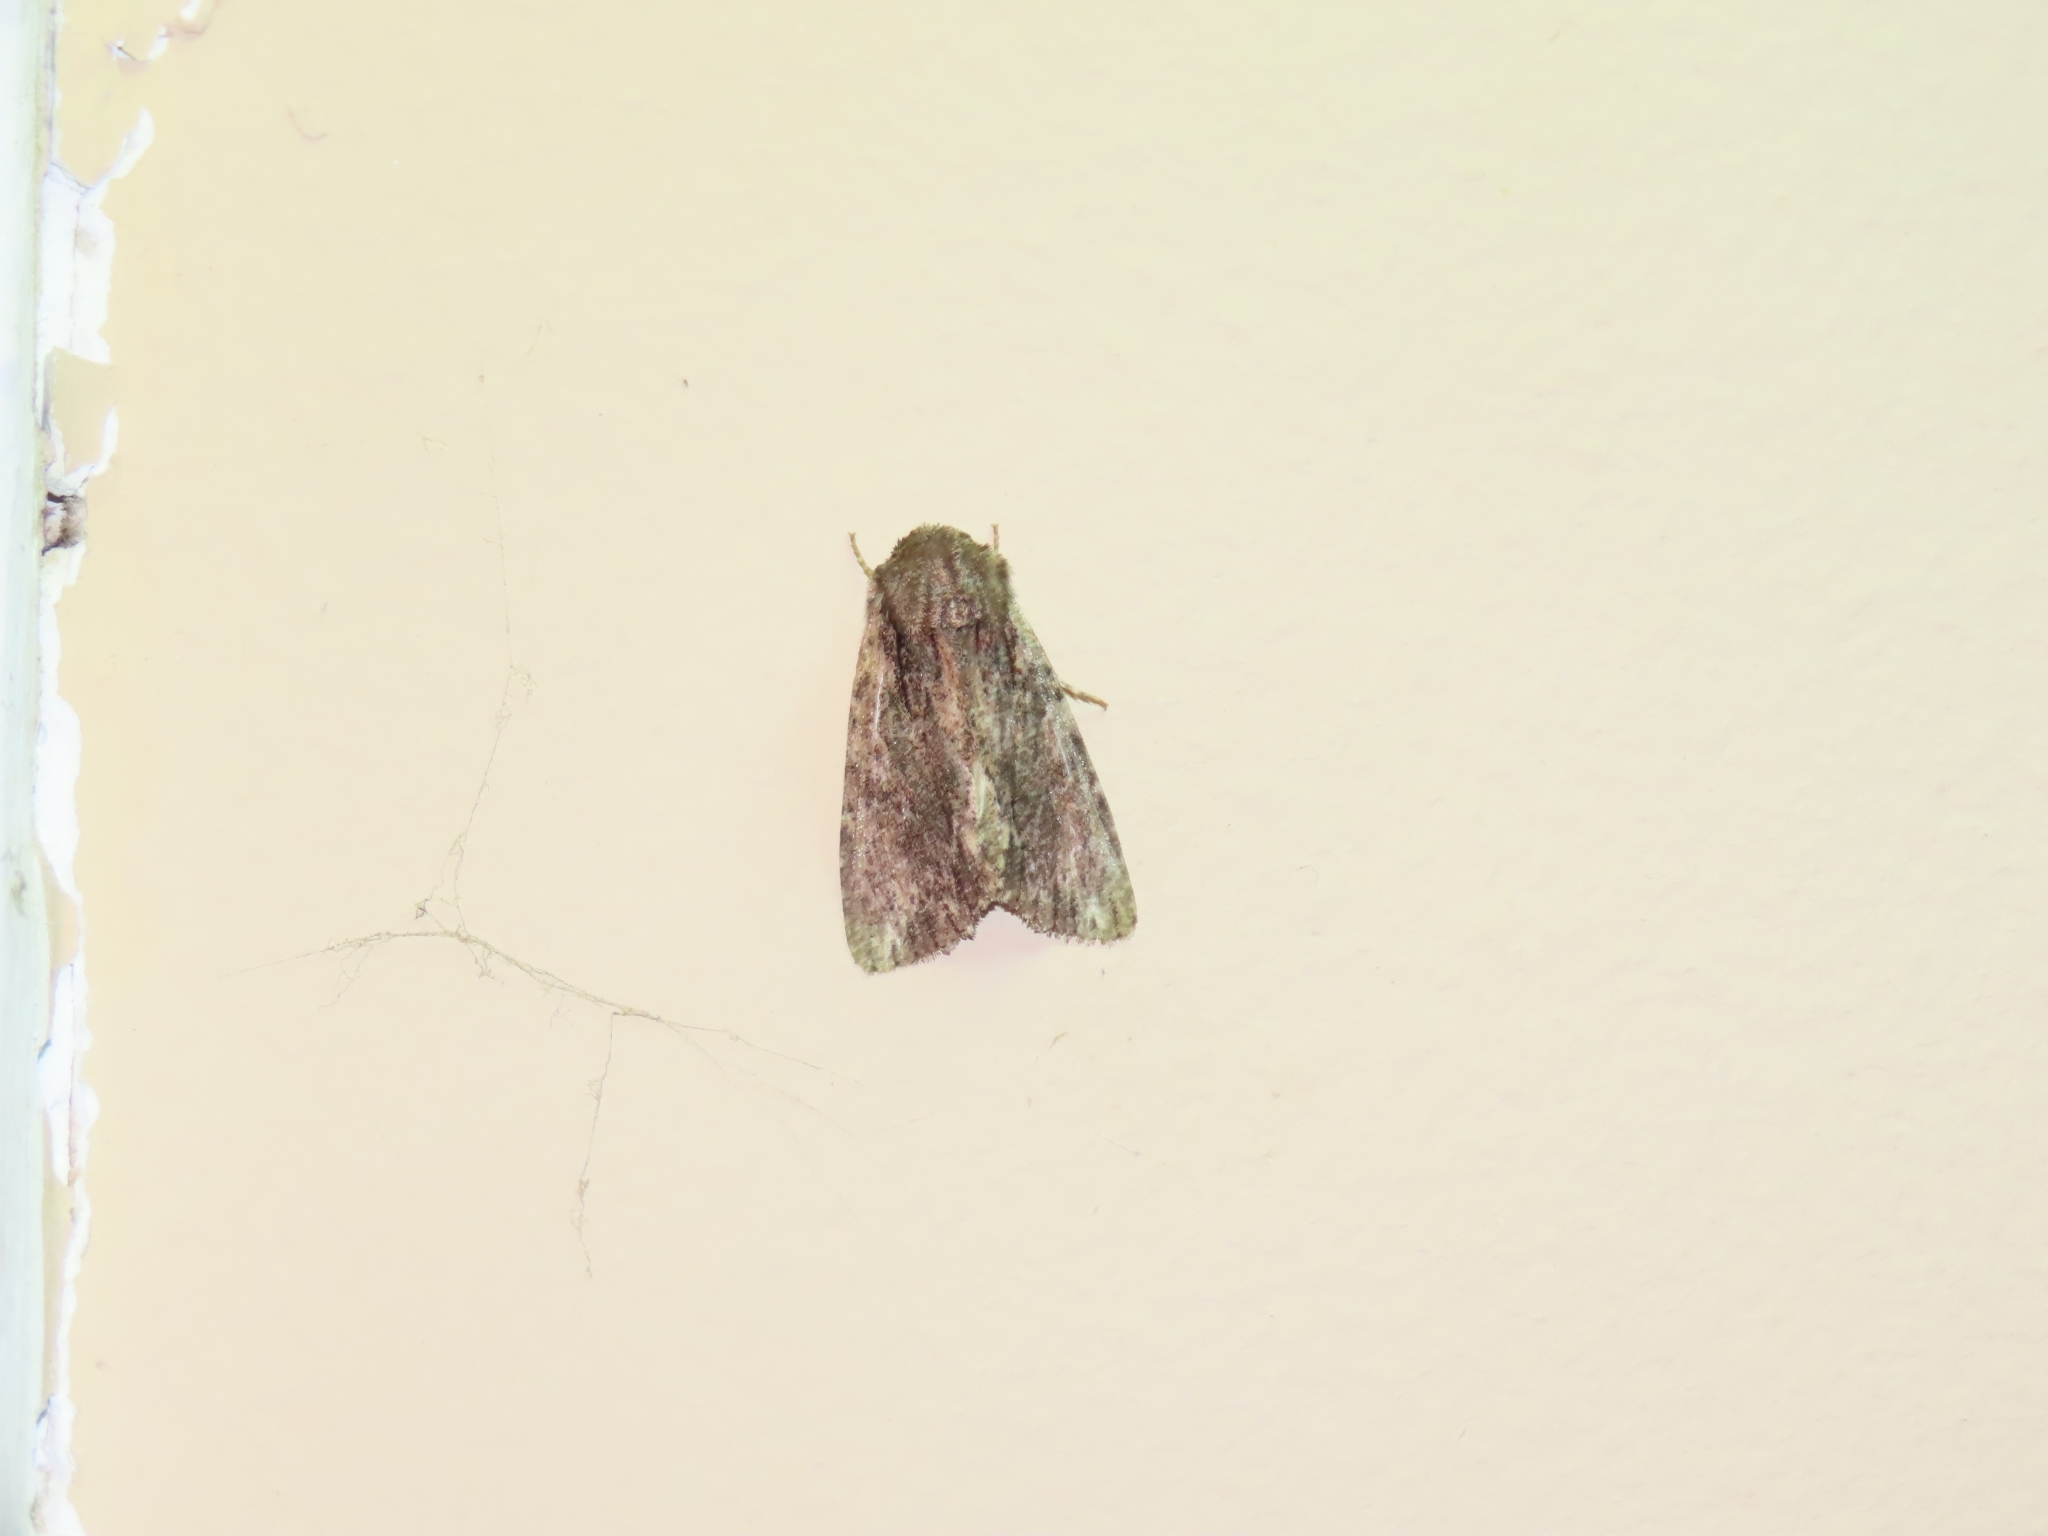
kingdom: Animalia
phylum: Arthropoda
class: Insecta
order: Lepidoptera
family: Noctuidae
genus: Achatia
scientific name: Achatia confusa
